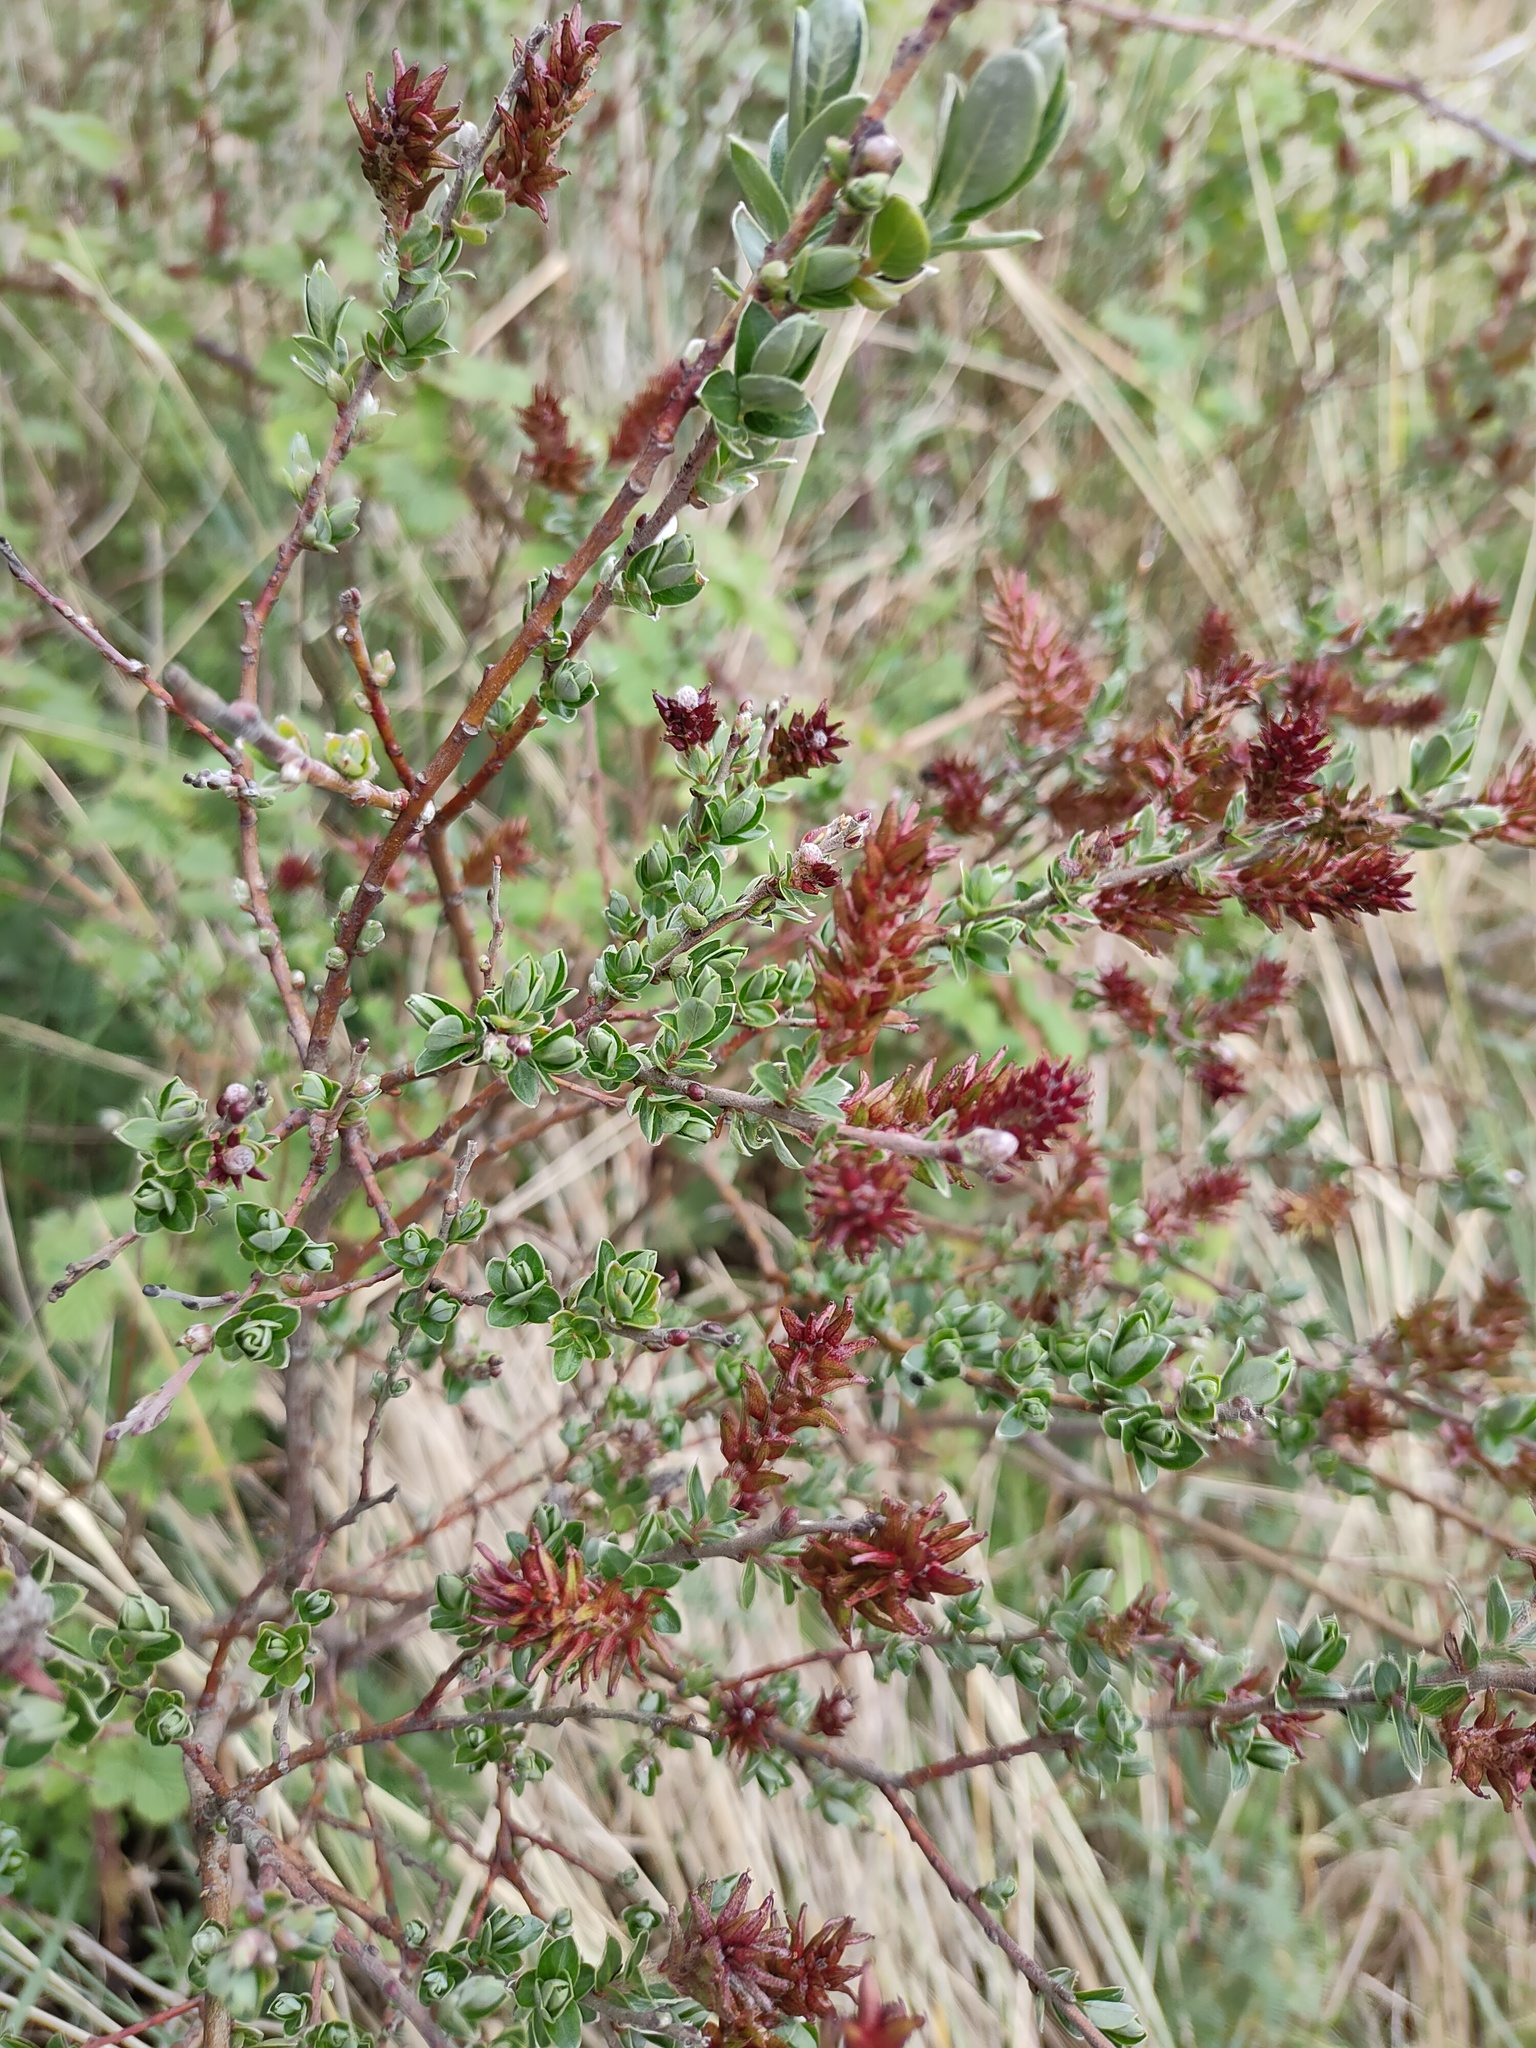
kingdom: Plantae
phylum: Tracheophyta
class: Magnoliopsida
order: Malpighiales
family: Salicaceae
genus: Salix
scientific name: Salix repens
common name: Creeping willow
